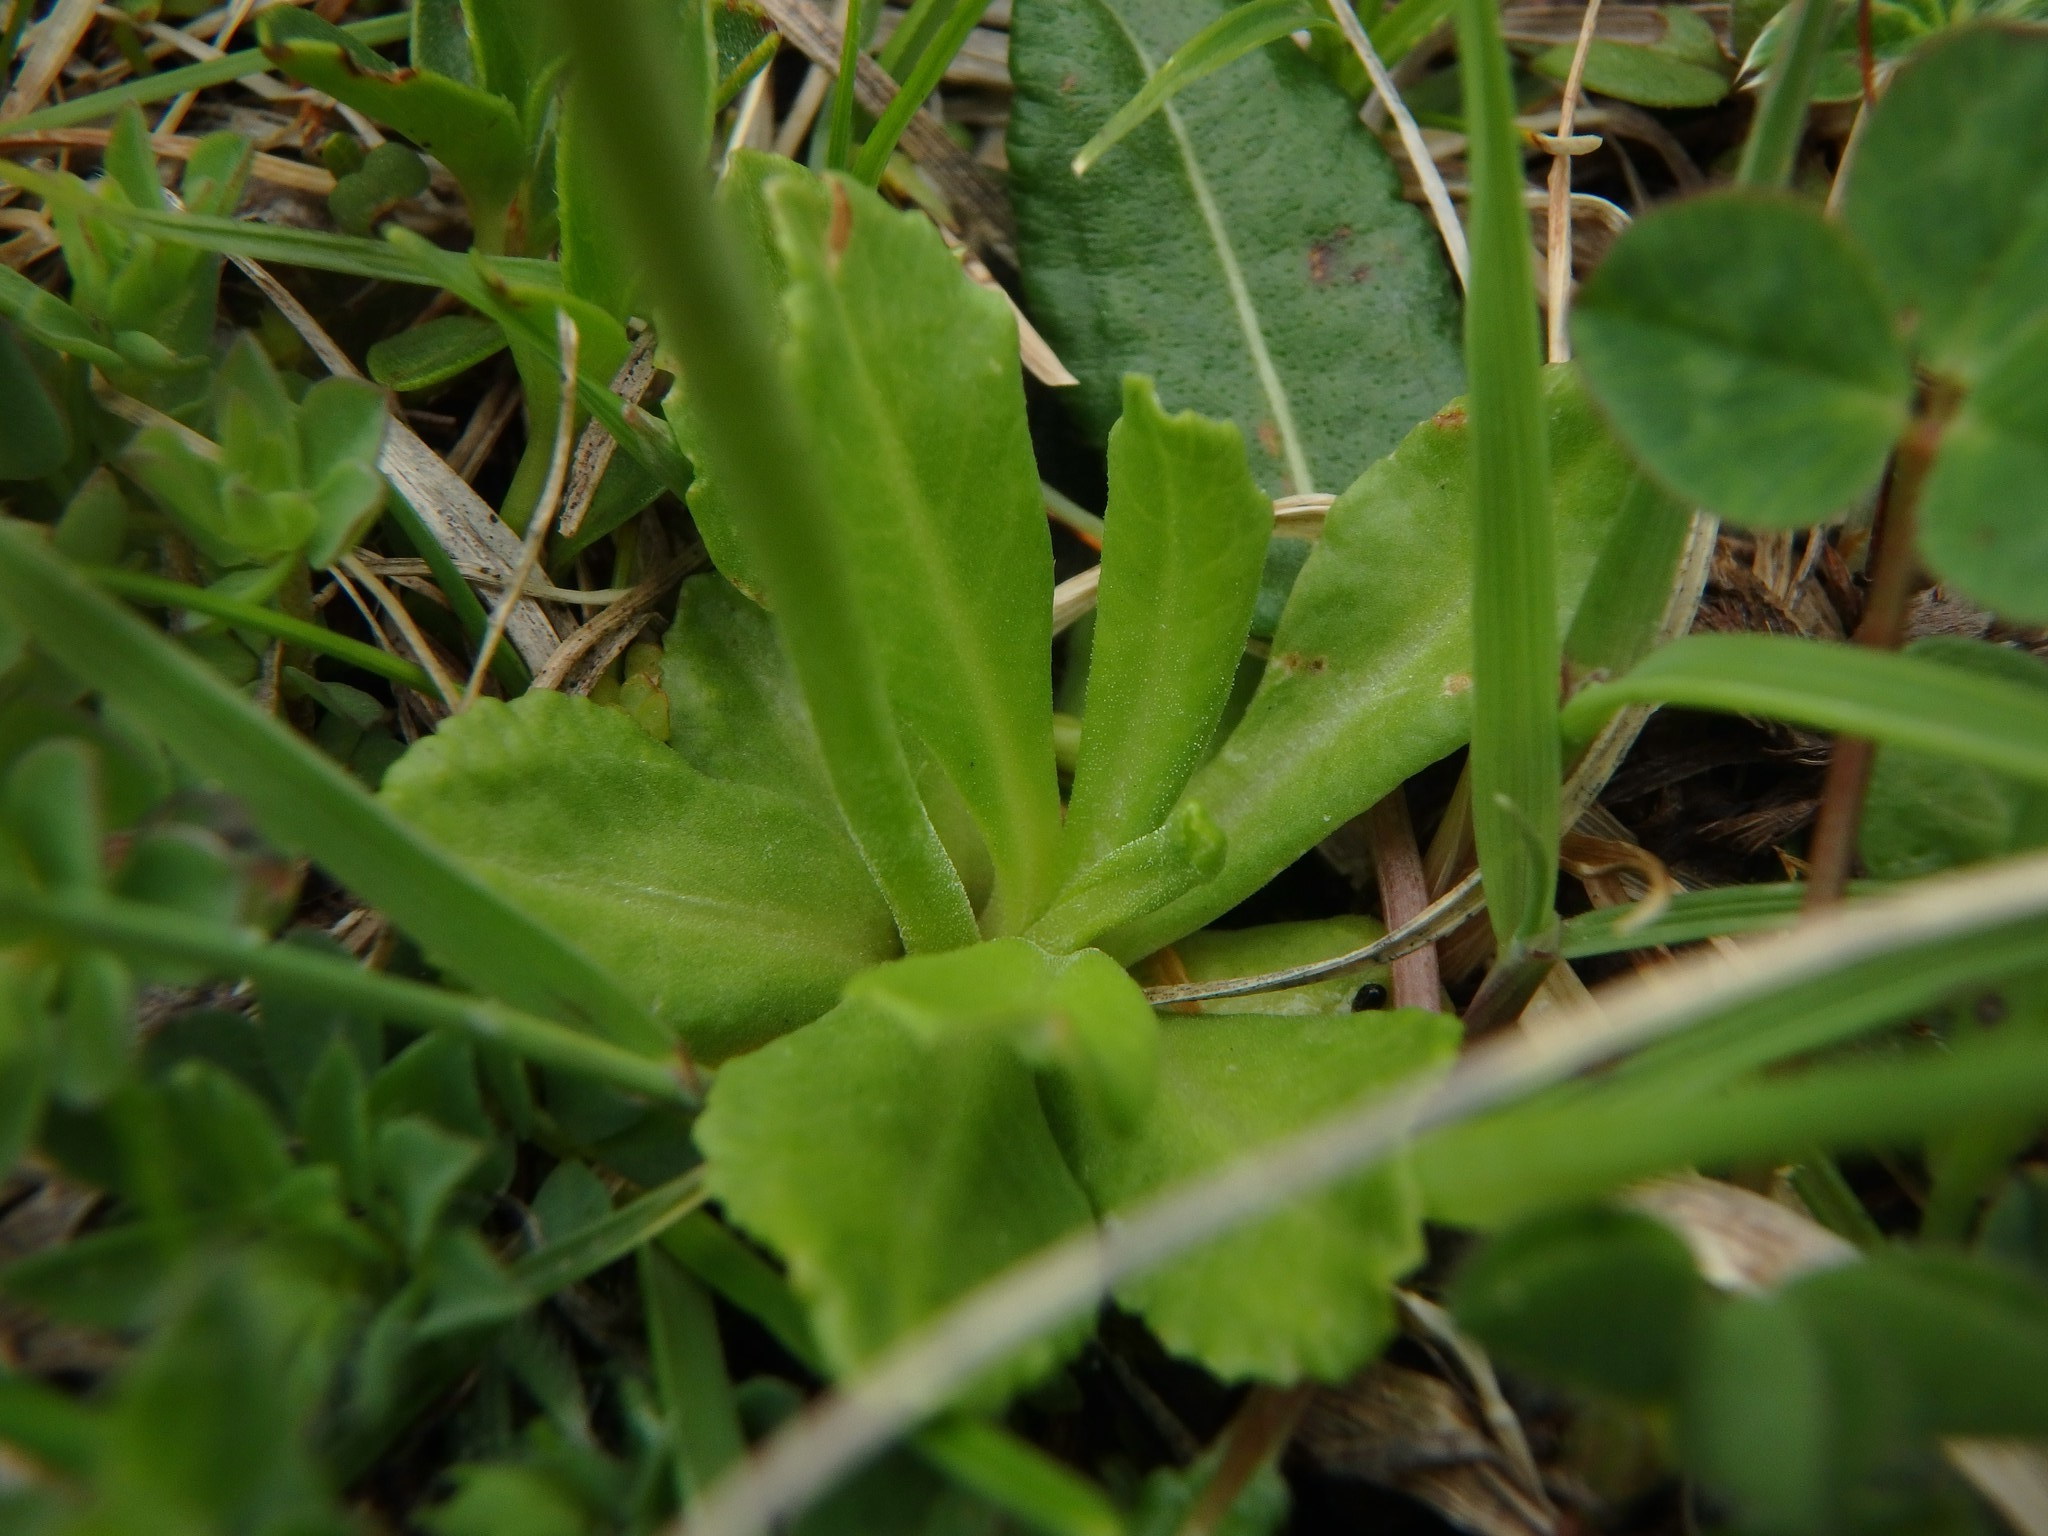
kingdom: Plantae
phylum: Tracheophyta
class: Magnoliopsida
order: Ericales
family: Primulaceae
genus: Primula
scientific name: Primula farinosa
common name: Bird's-eye primrose
